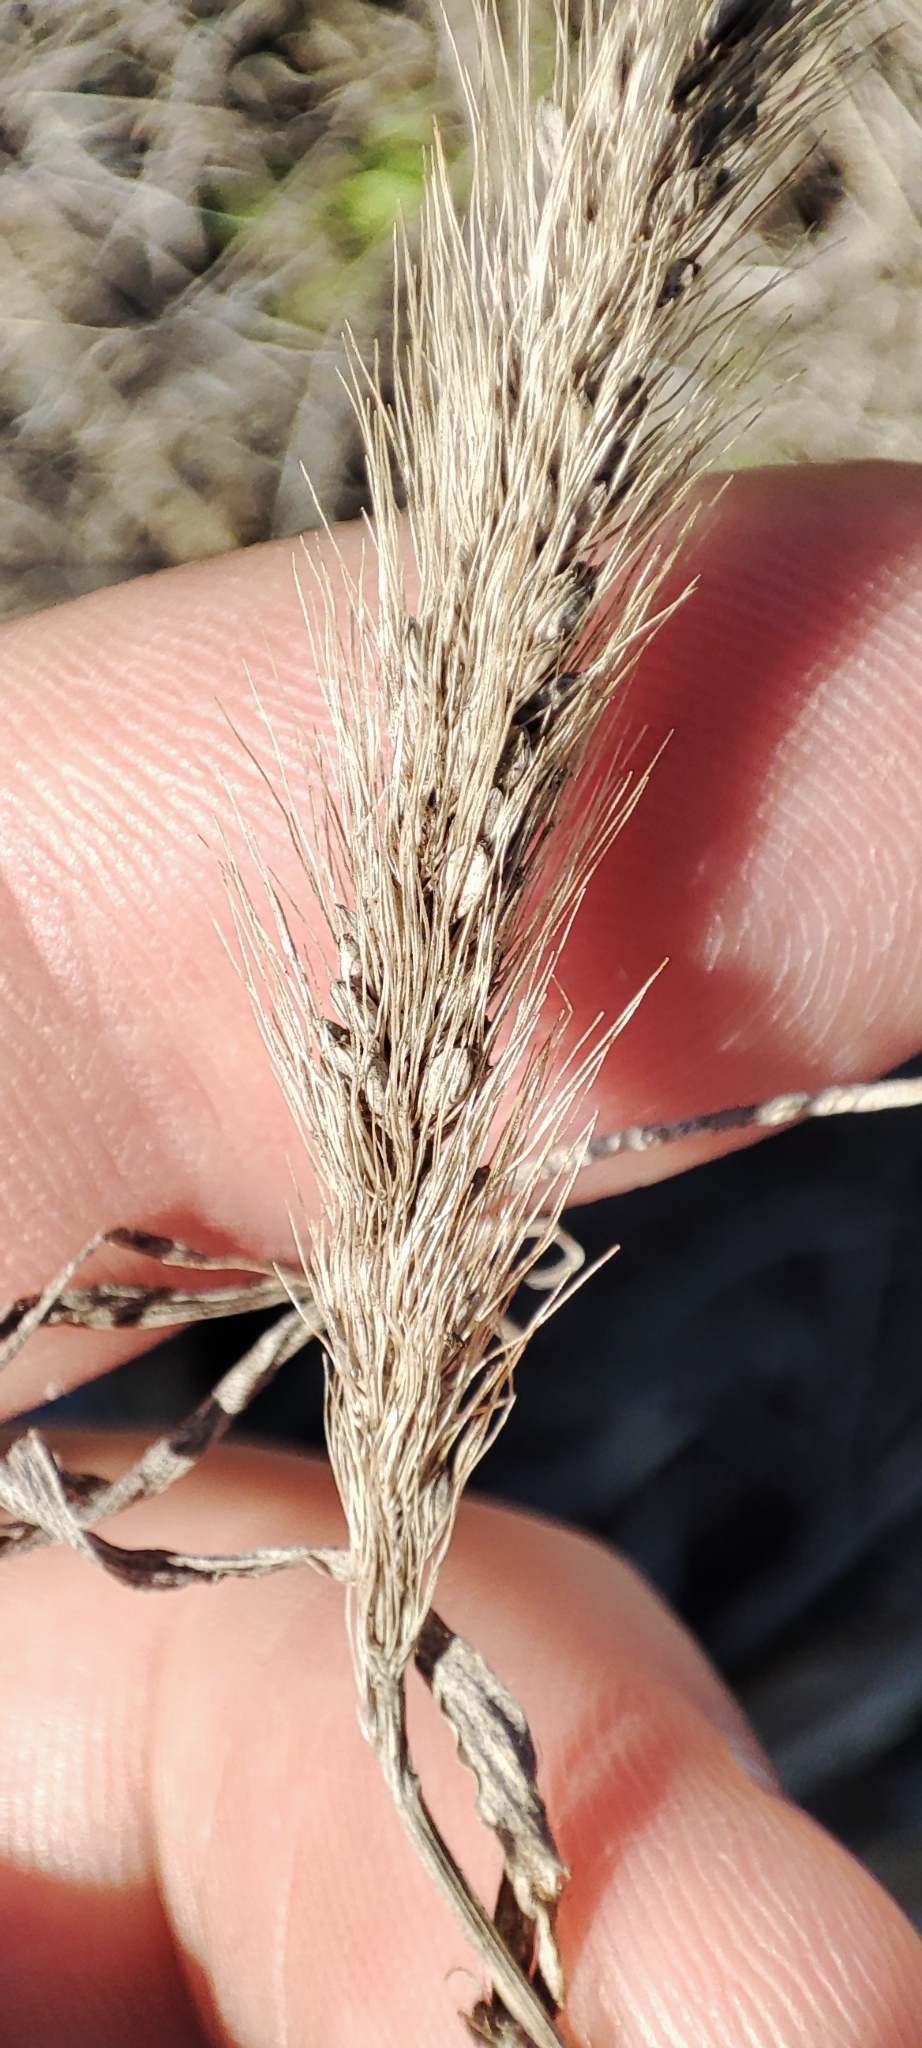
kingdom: Plantae
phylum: Tracheophyta
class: Liliopsida
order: Poales
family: Poaceae
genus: Setaria
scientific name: Setaria viridis
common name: Green bristlegrass
